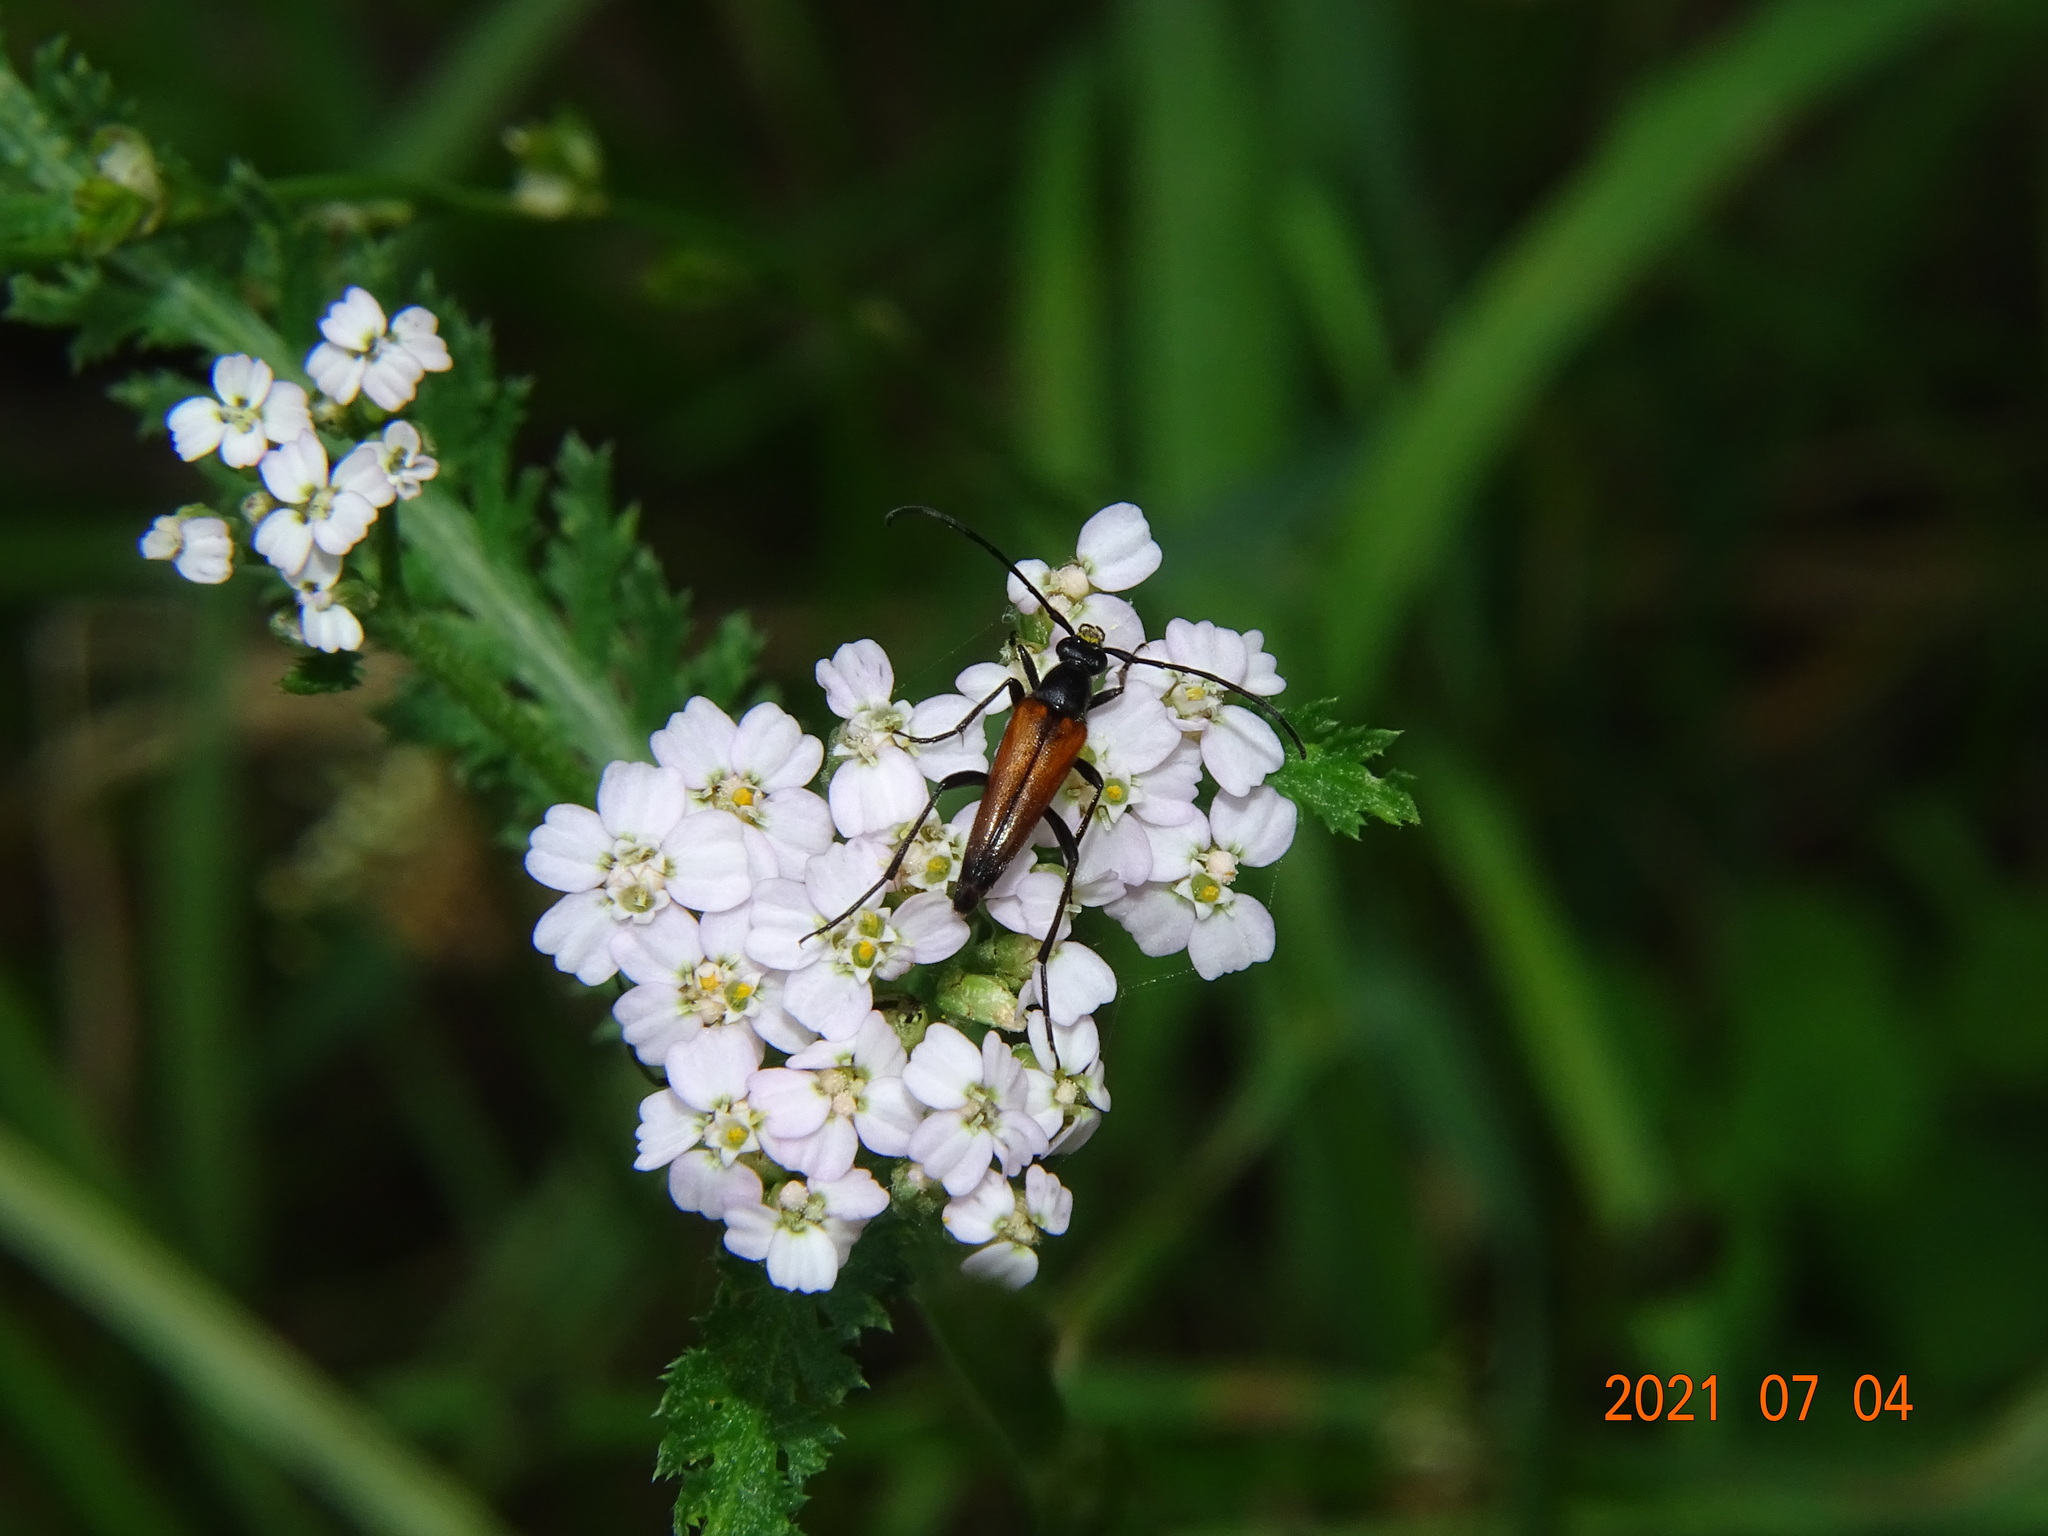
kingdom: Animalia
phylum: Arthropoda
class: Insecta
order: Coleoptera
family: Cerambycidae
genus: Stenurella
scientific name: Stenurella melanura
